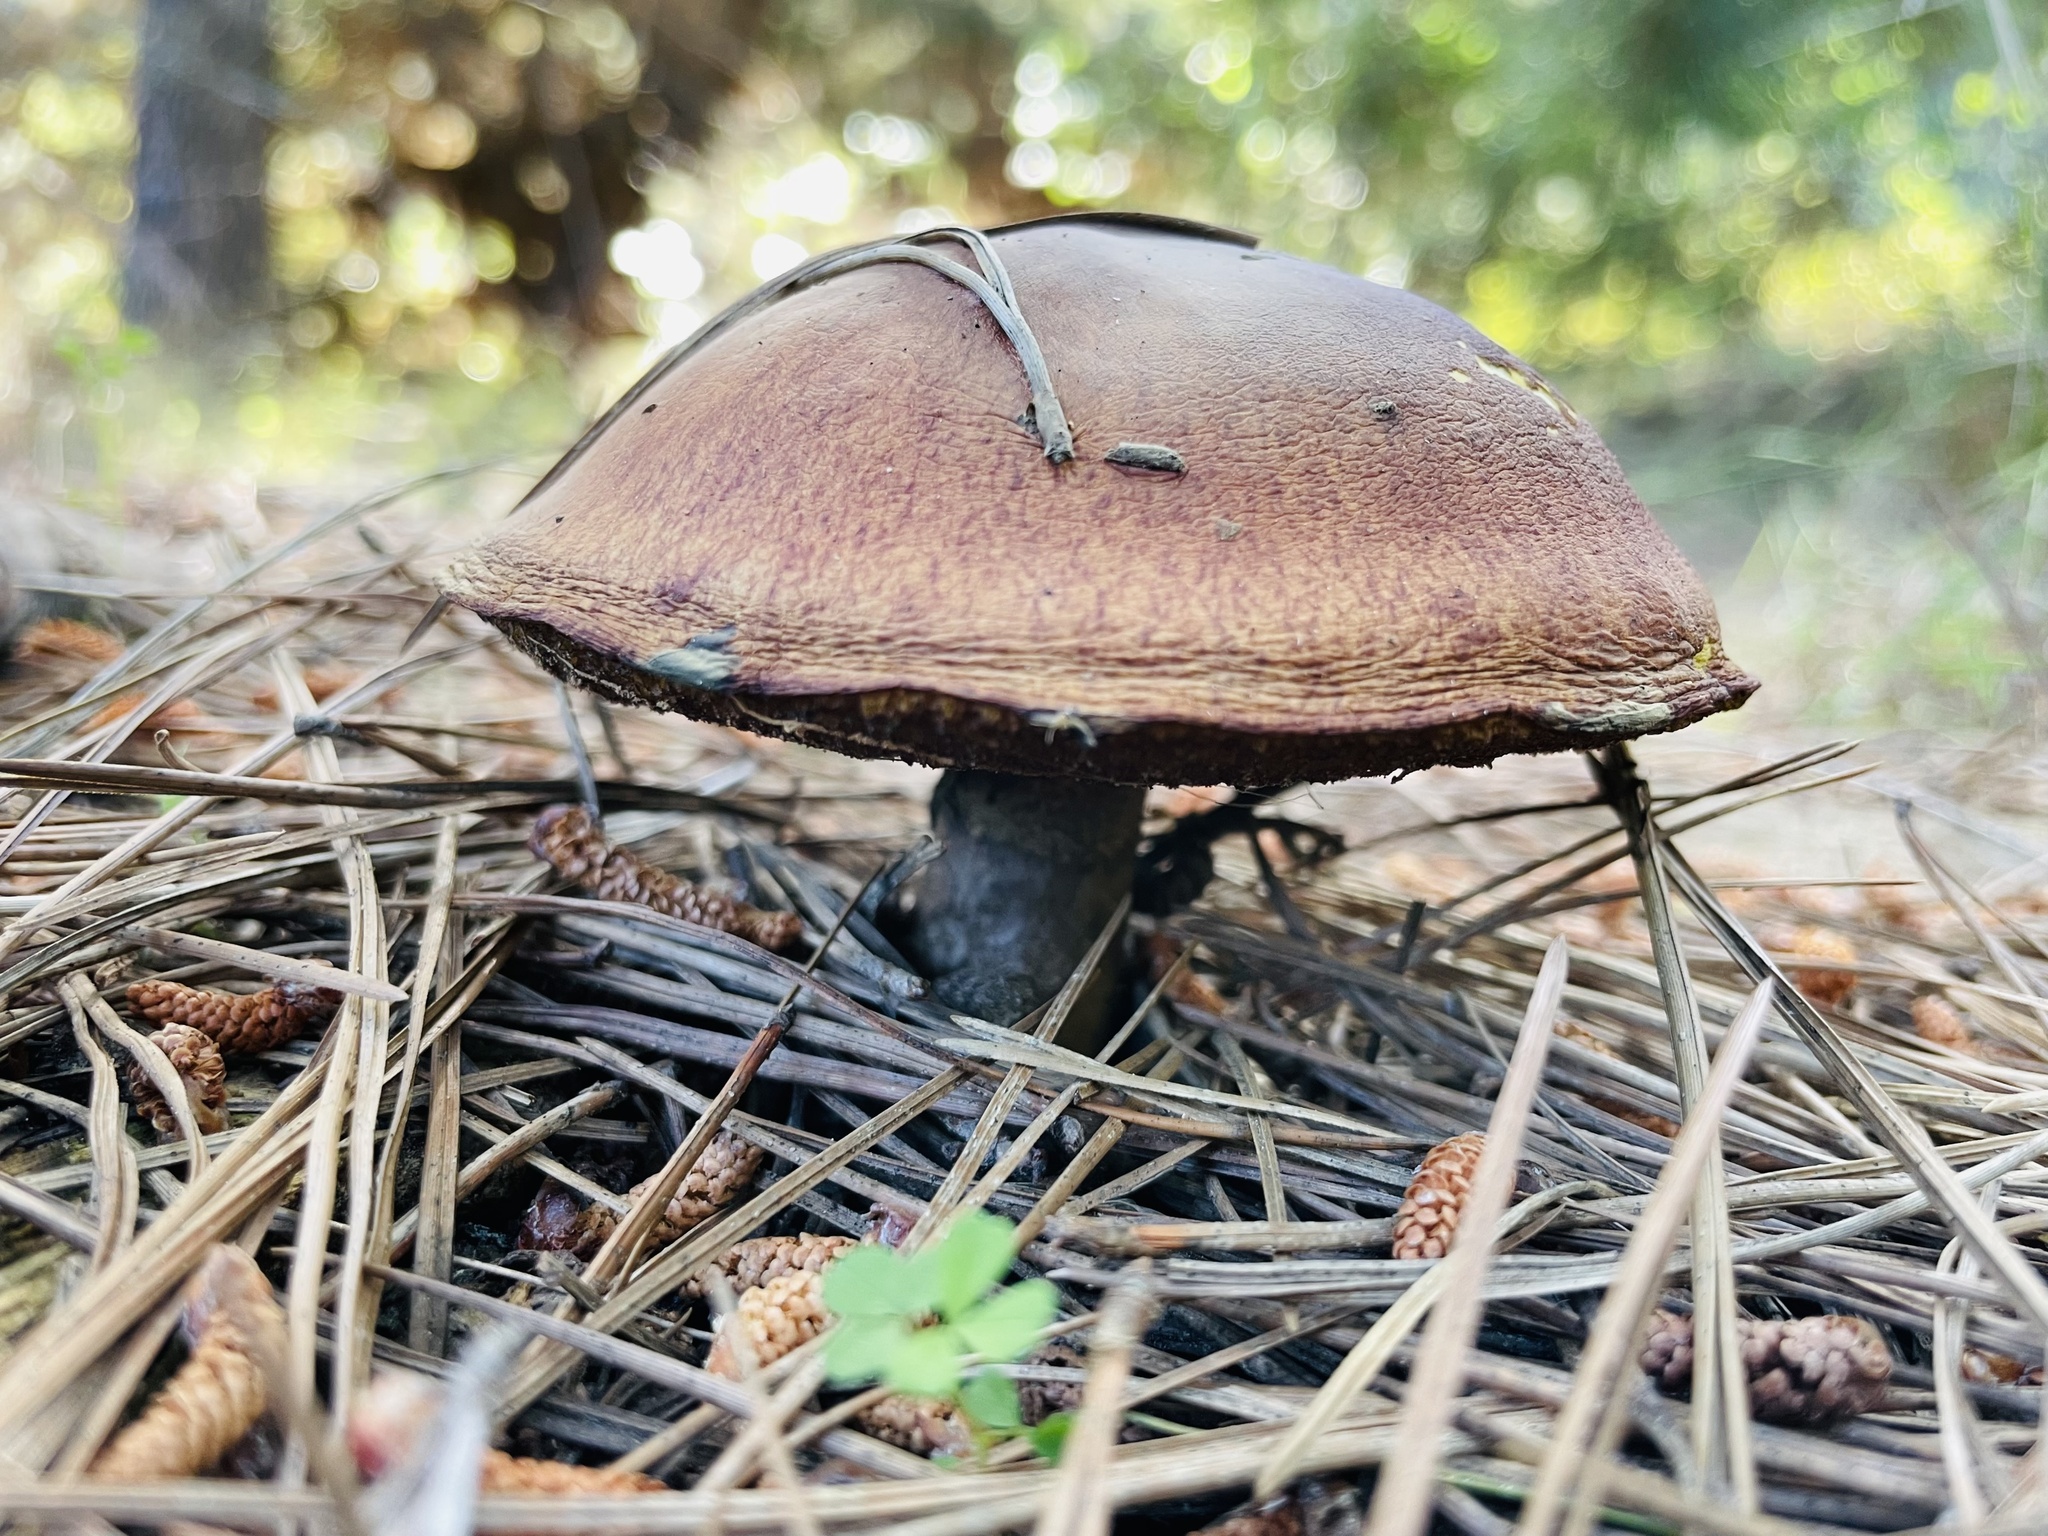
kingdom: Fungi
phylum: Basidiomycota
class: Agaricomycetes
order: Boletales
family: Suillaceae
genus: Suillus
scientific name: Suillus luteus
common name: Slippery jack
